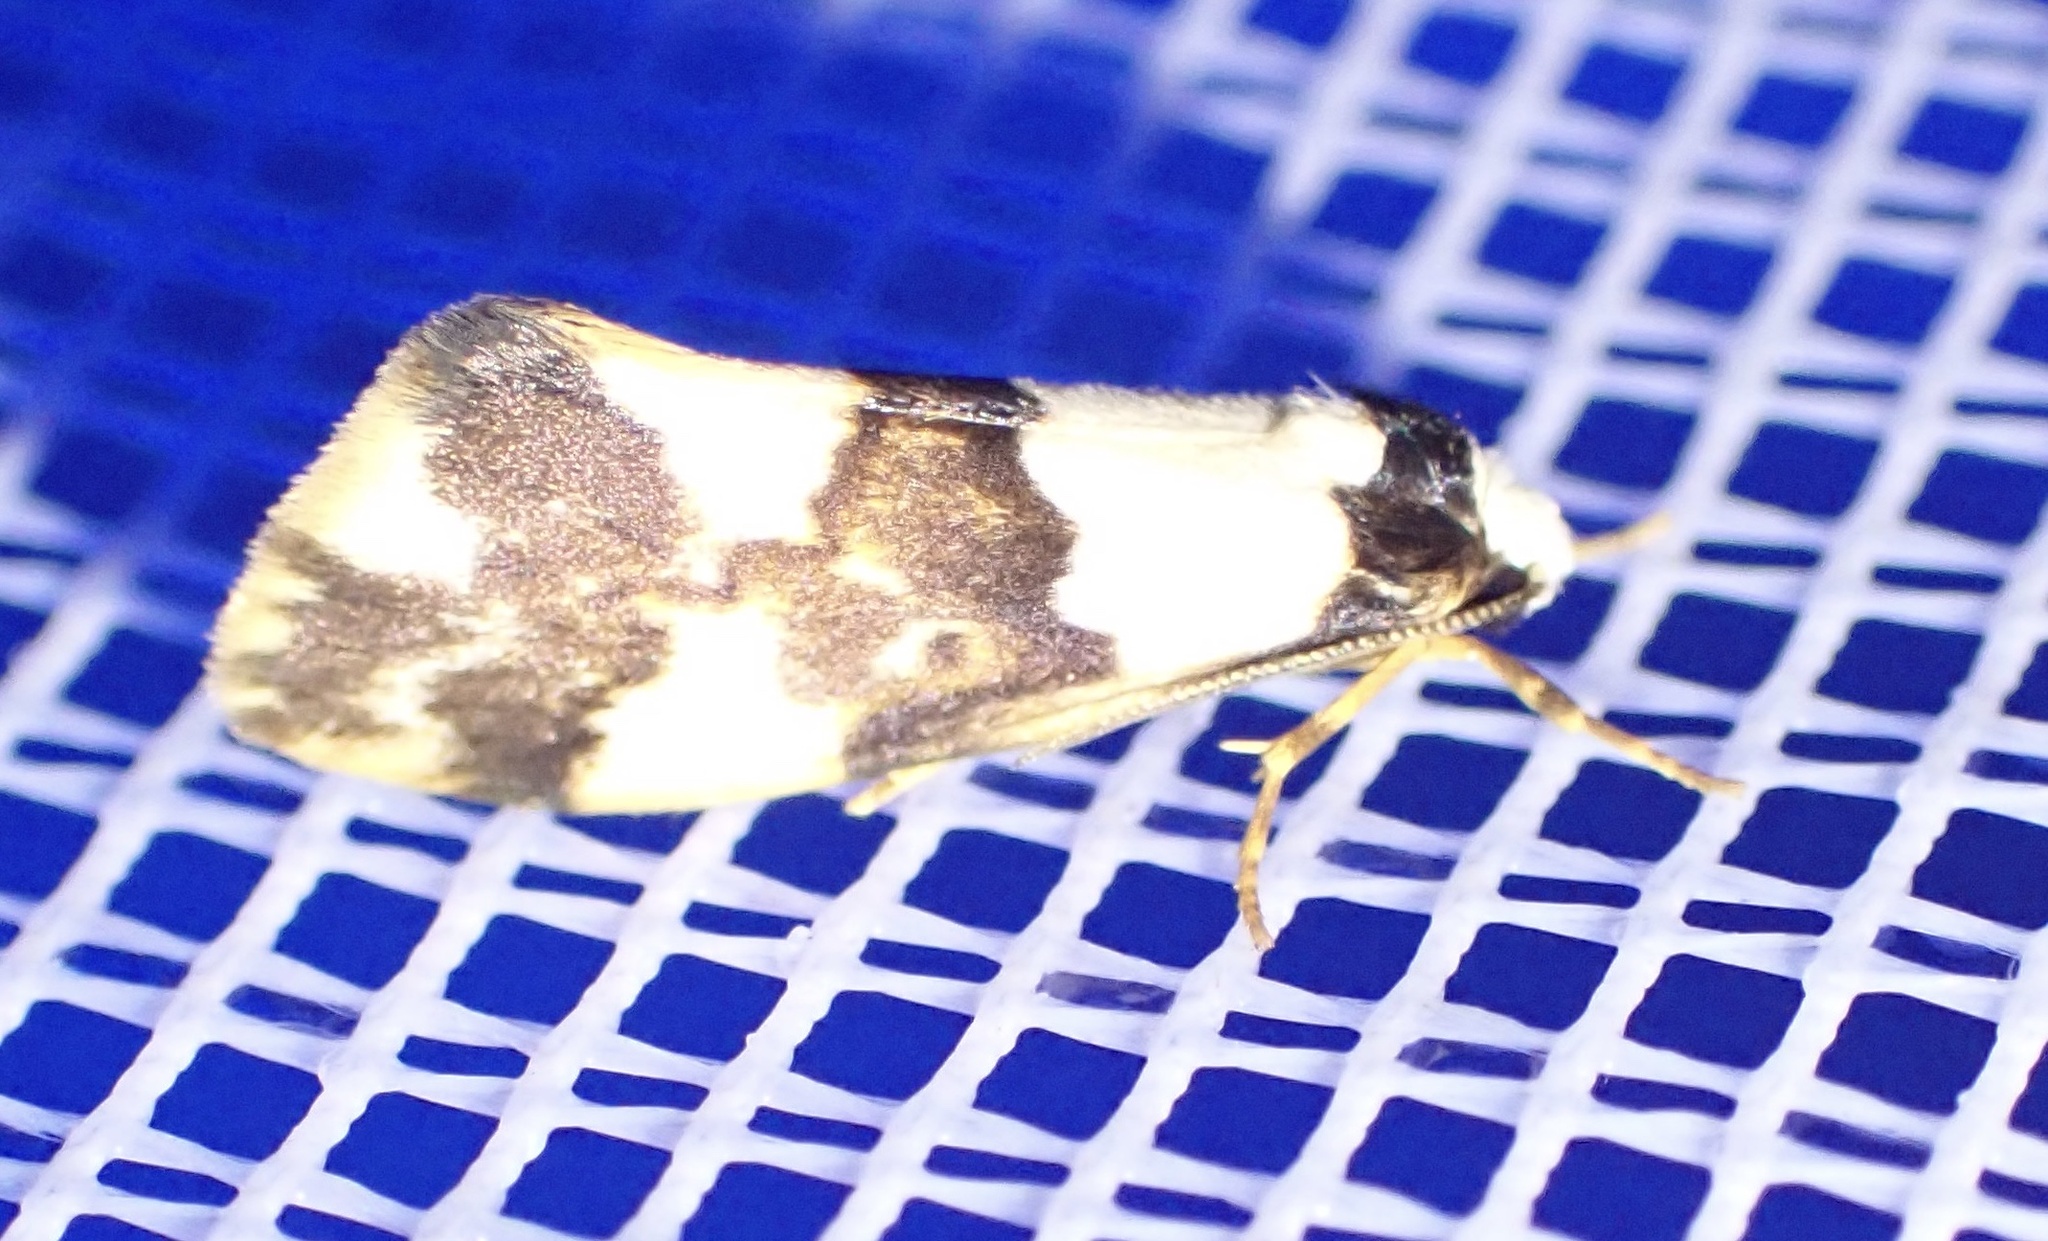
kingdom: Animalia
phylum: Arthropoda
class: Insecta
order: Lepidoptera
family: Erebidae
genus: Philenora
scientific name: Philenora aspectalella
